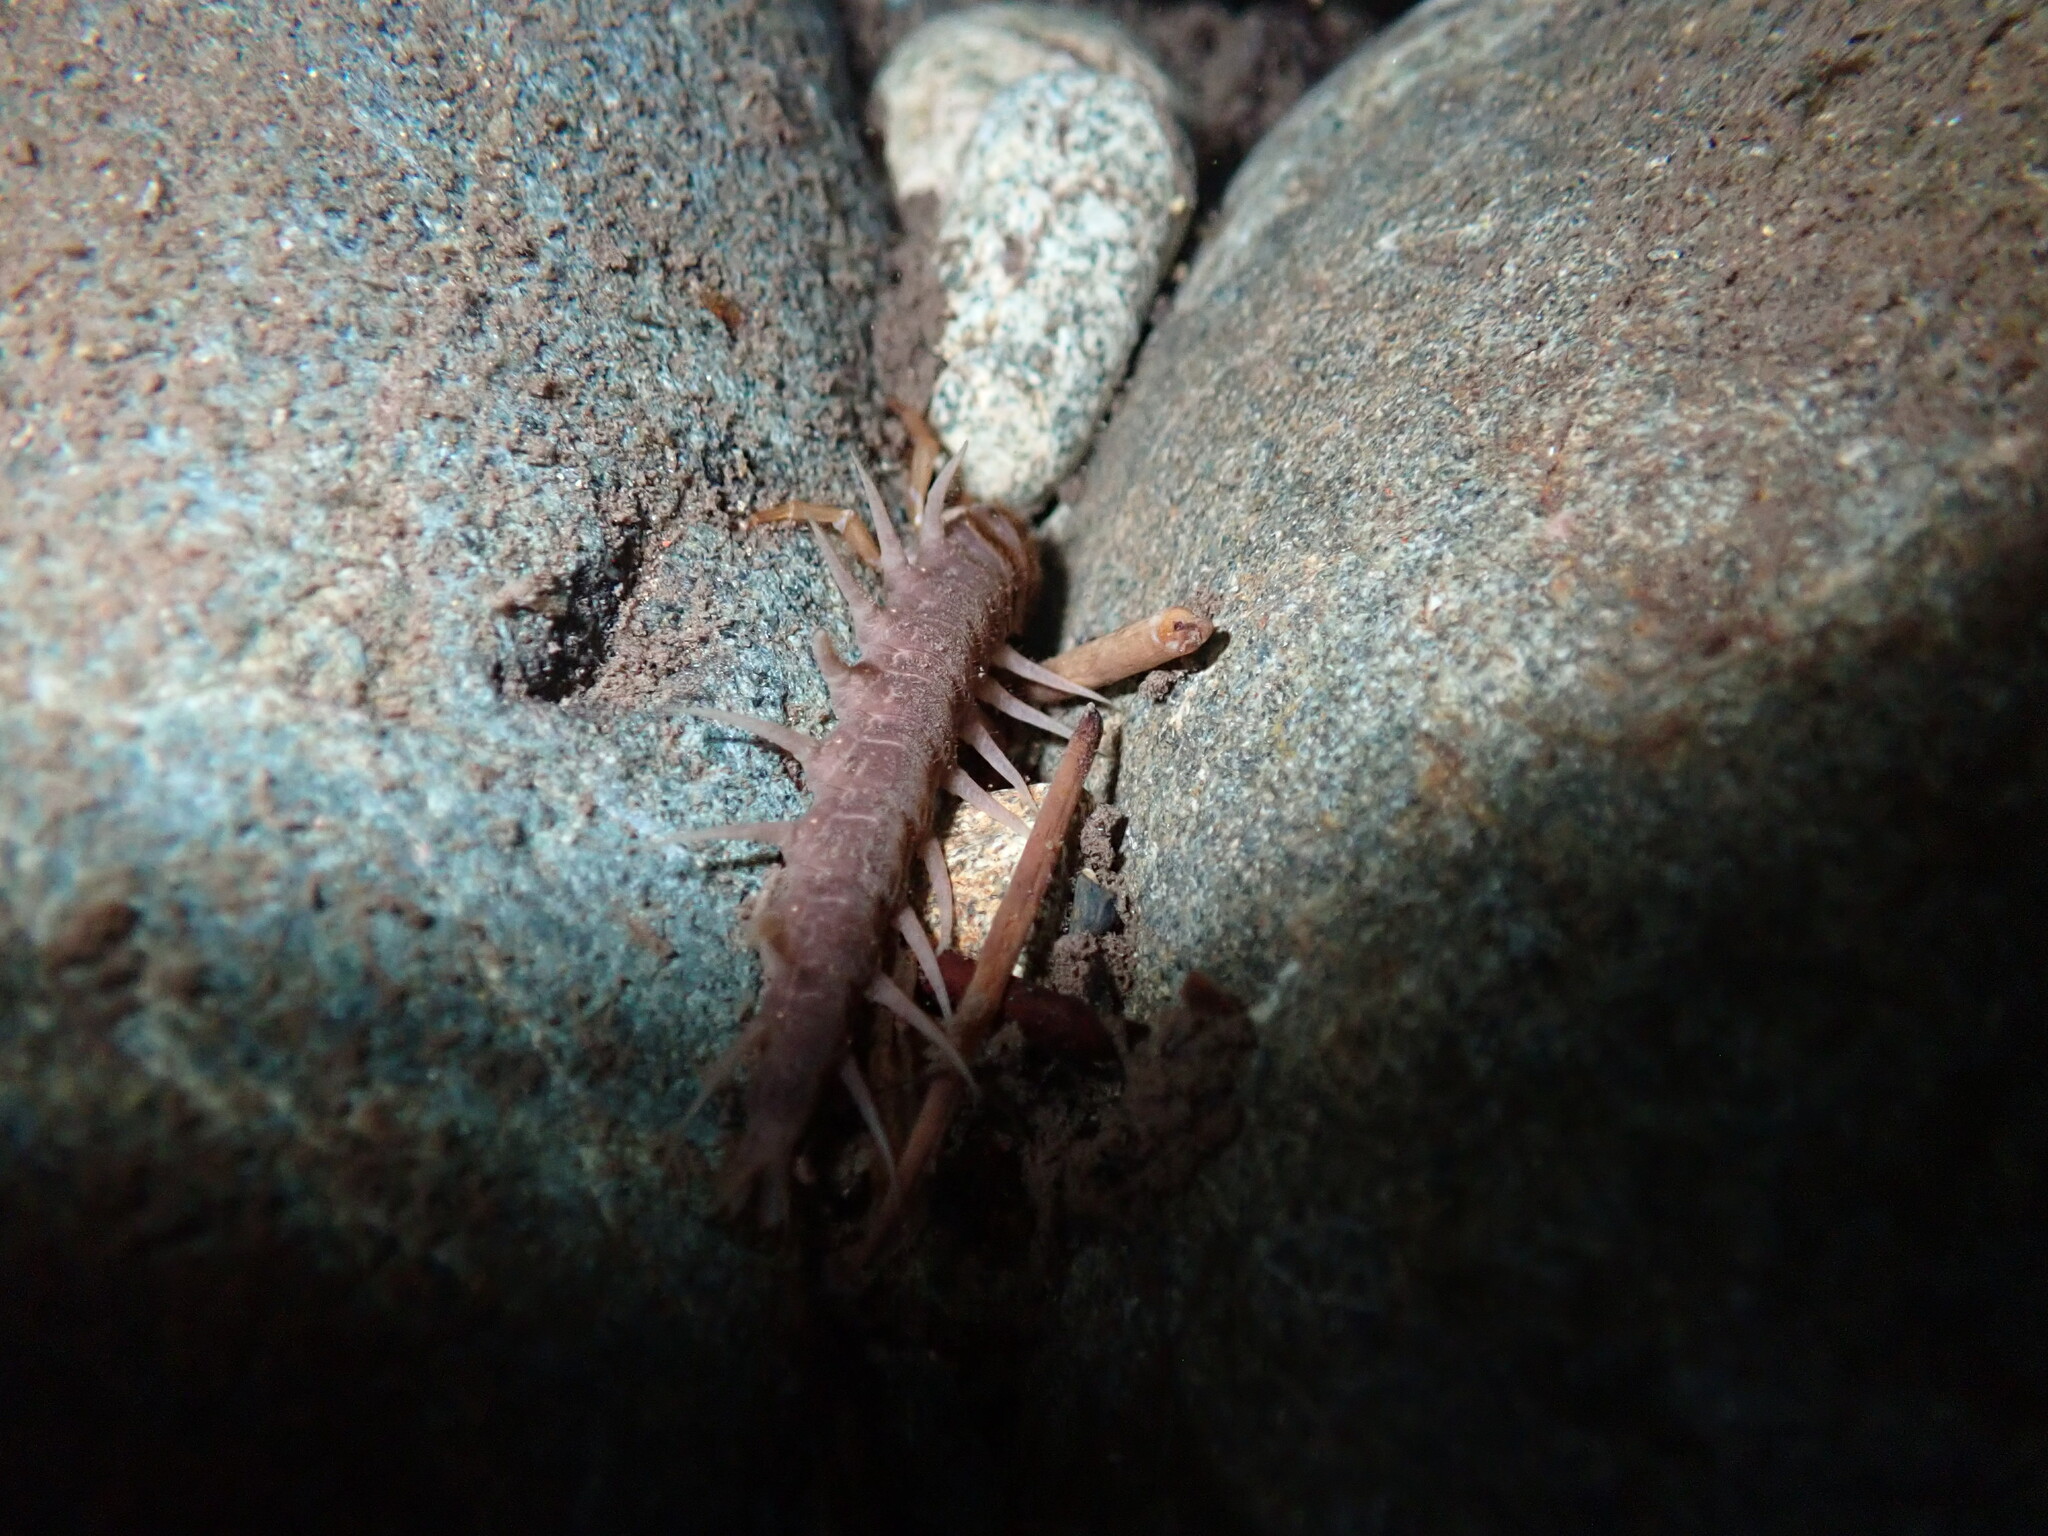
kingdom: Animalia
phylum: Arthropoda
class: Insecta
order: Megaloptera
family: Corydalidae
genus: Orohermes
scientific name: Orohermes crepusculus
